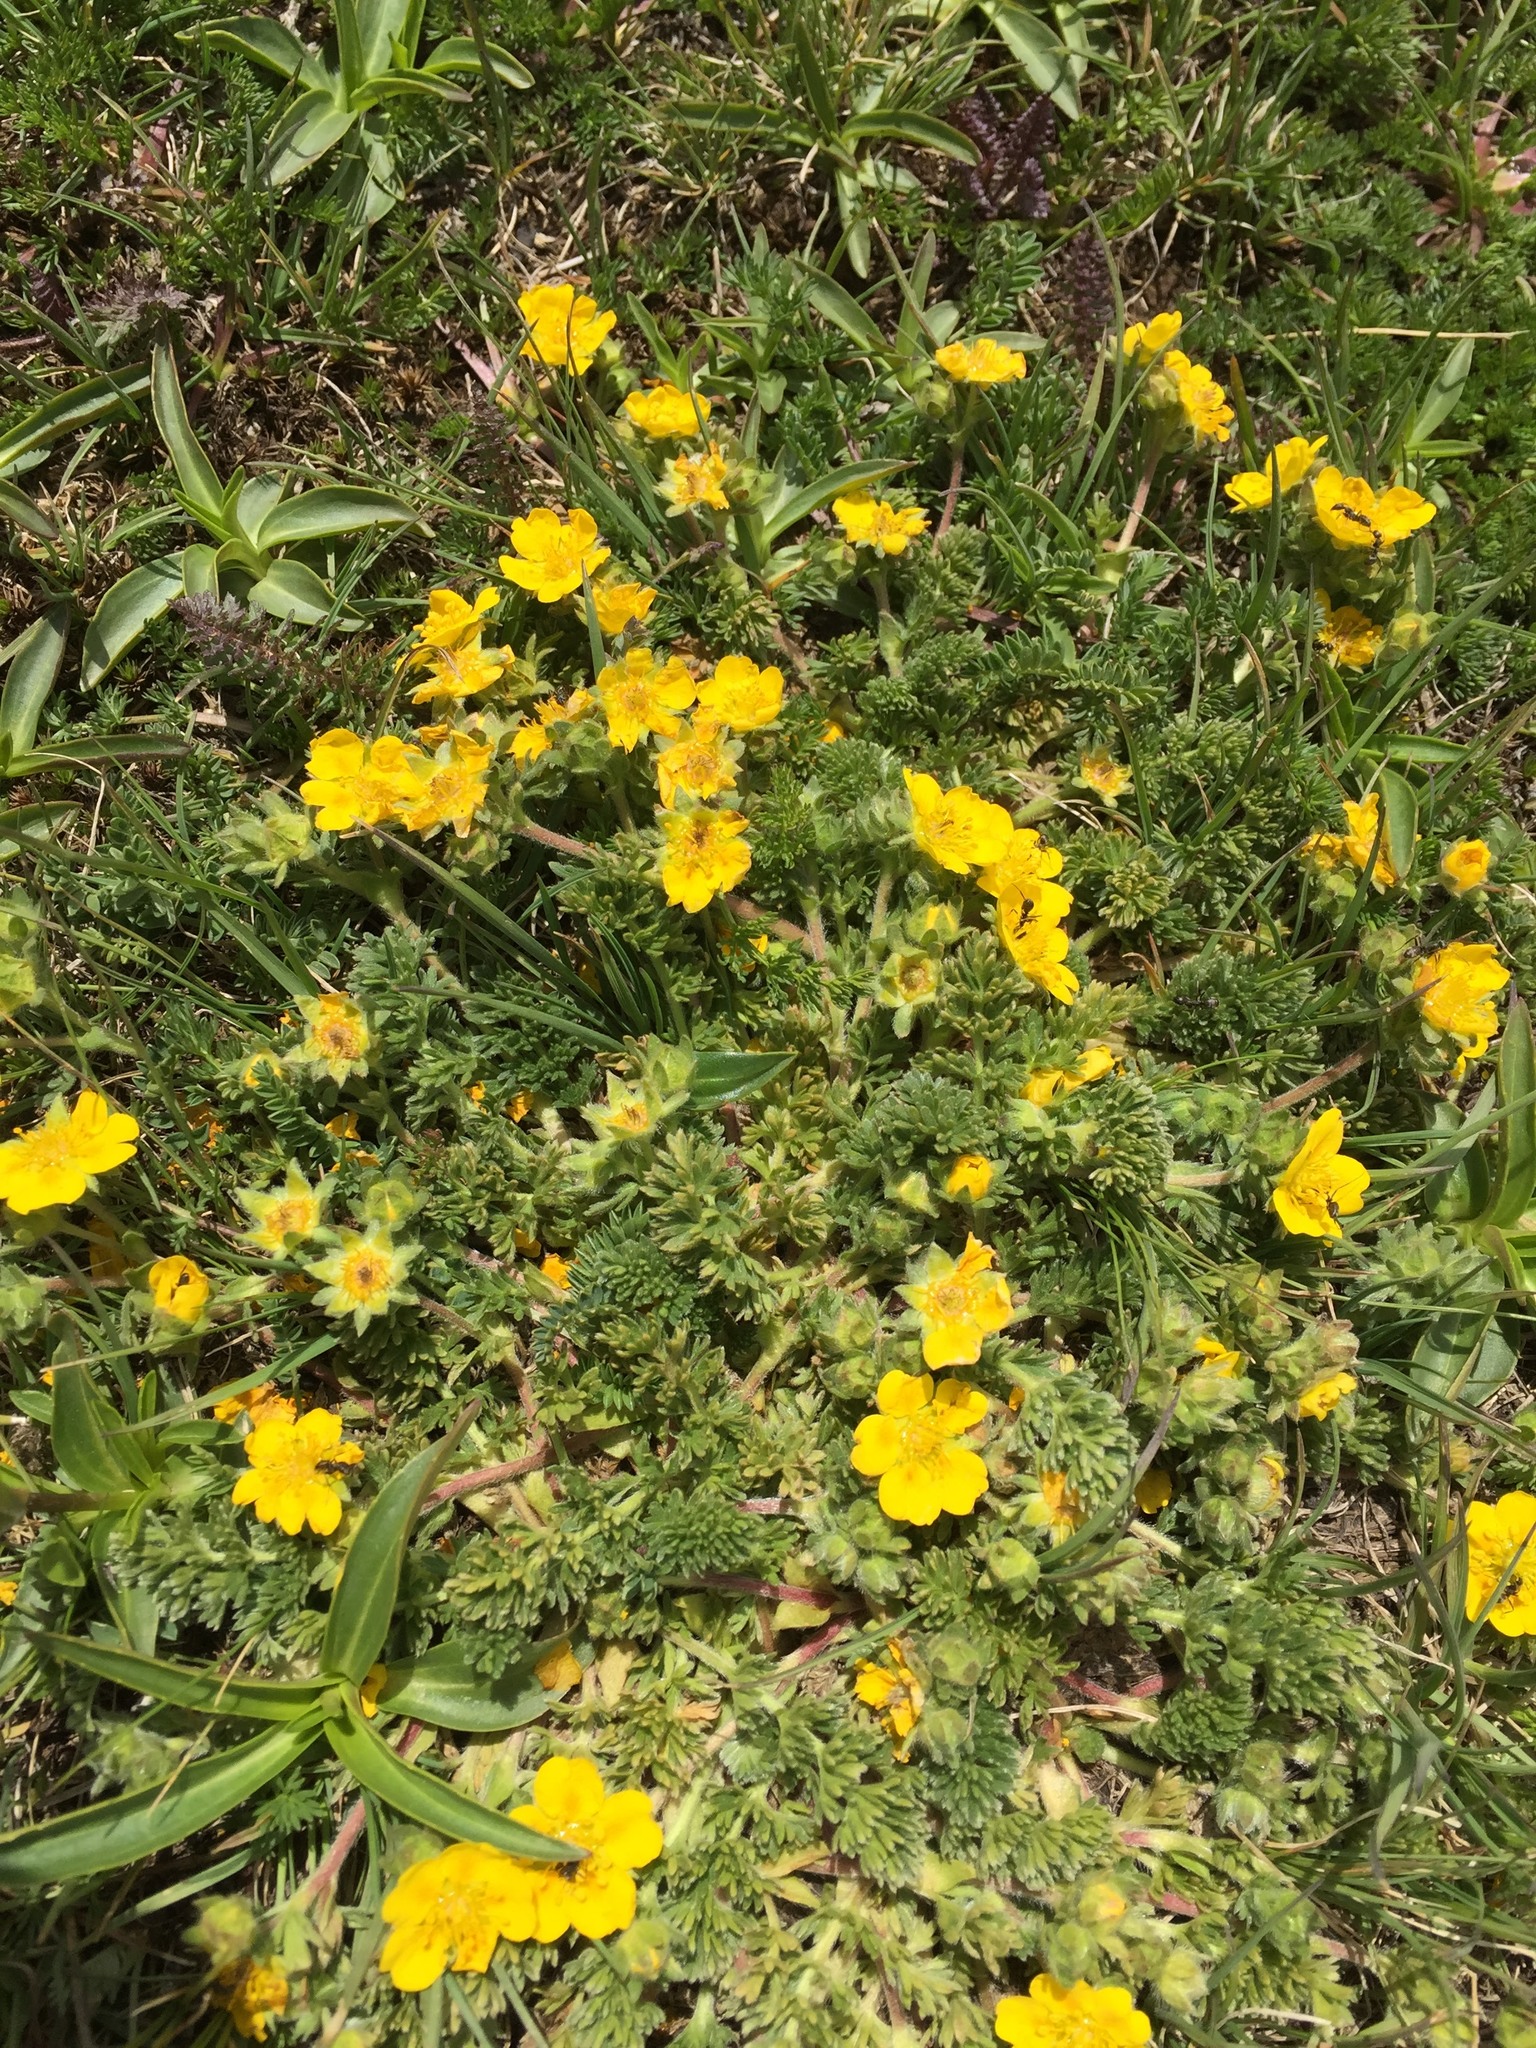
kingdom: Plantae
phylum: Tracheophyta
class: Magnoliopsida
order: Rosales
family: Rosaceae
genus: Potentilla
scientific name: Potentilla argaea
